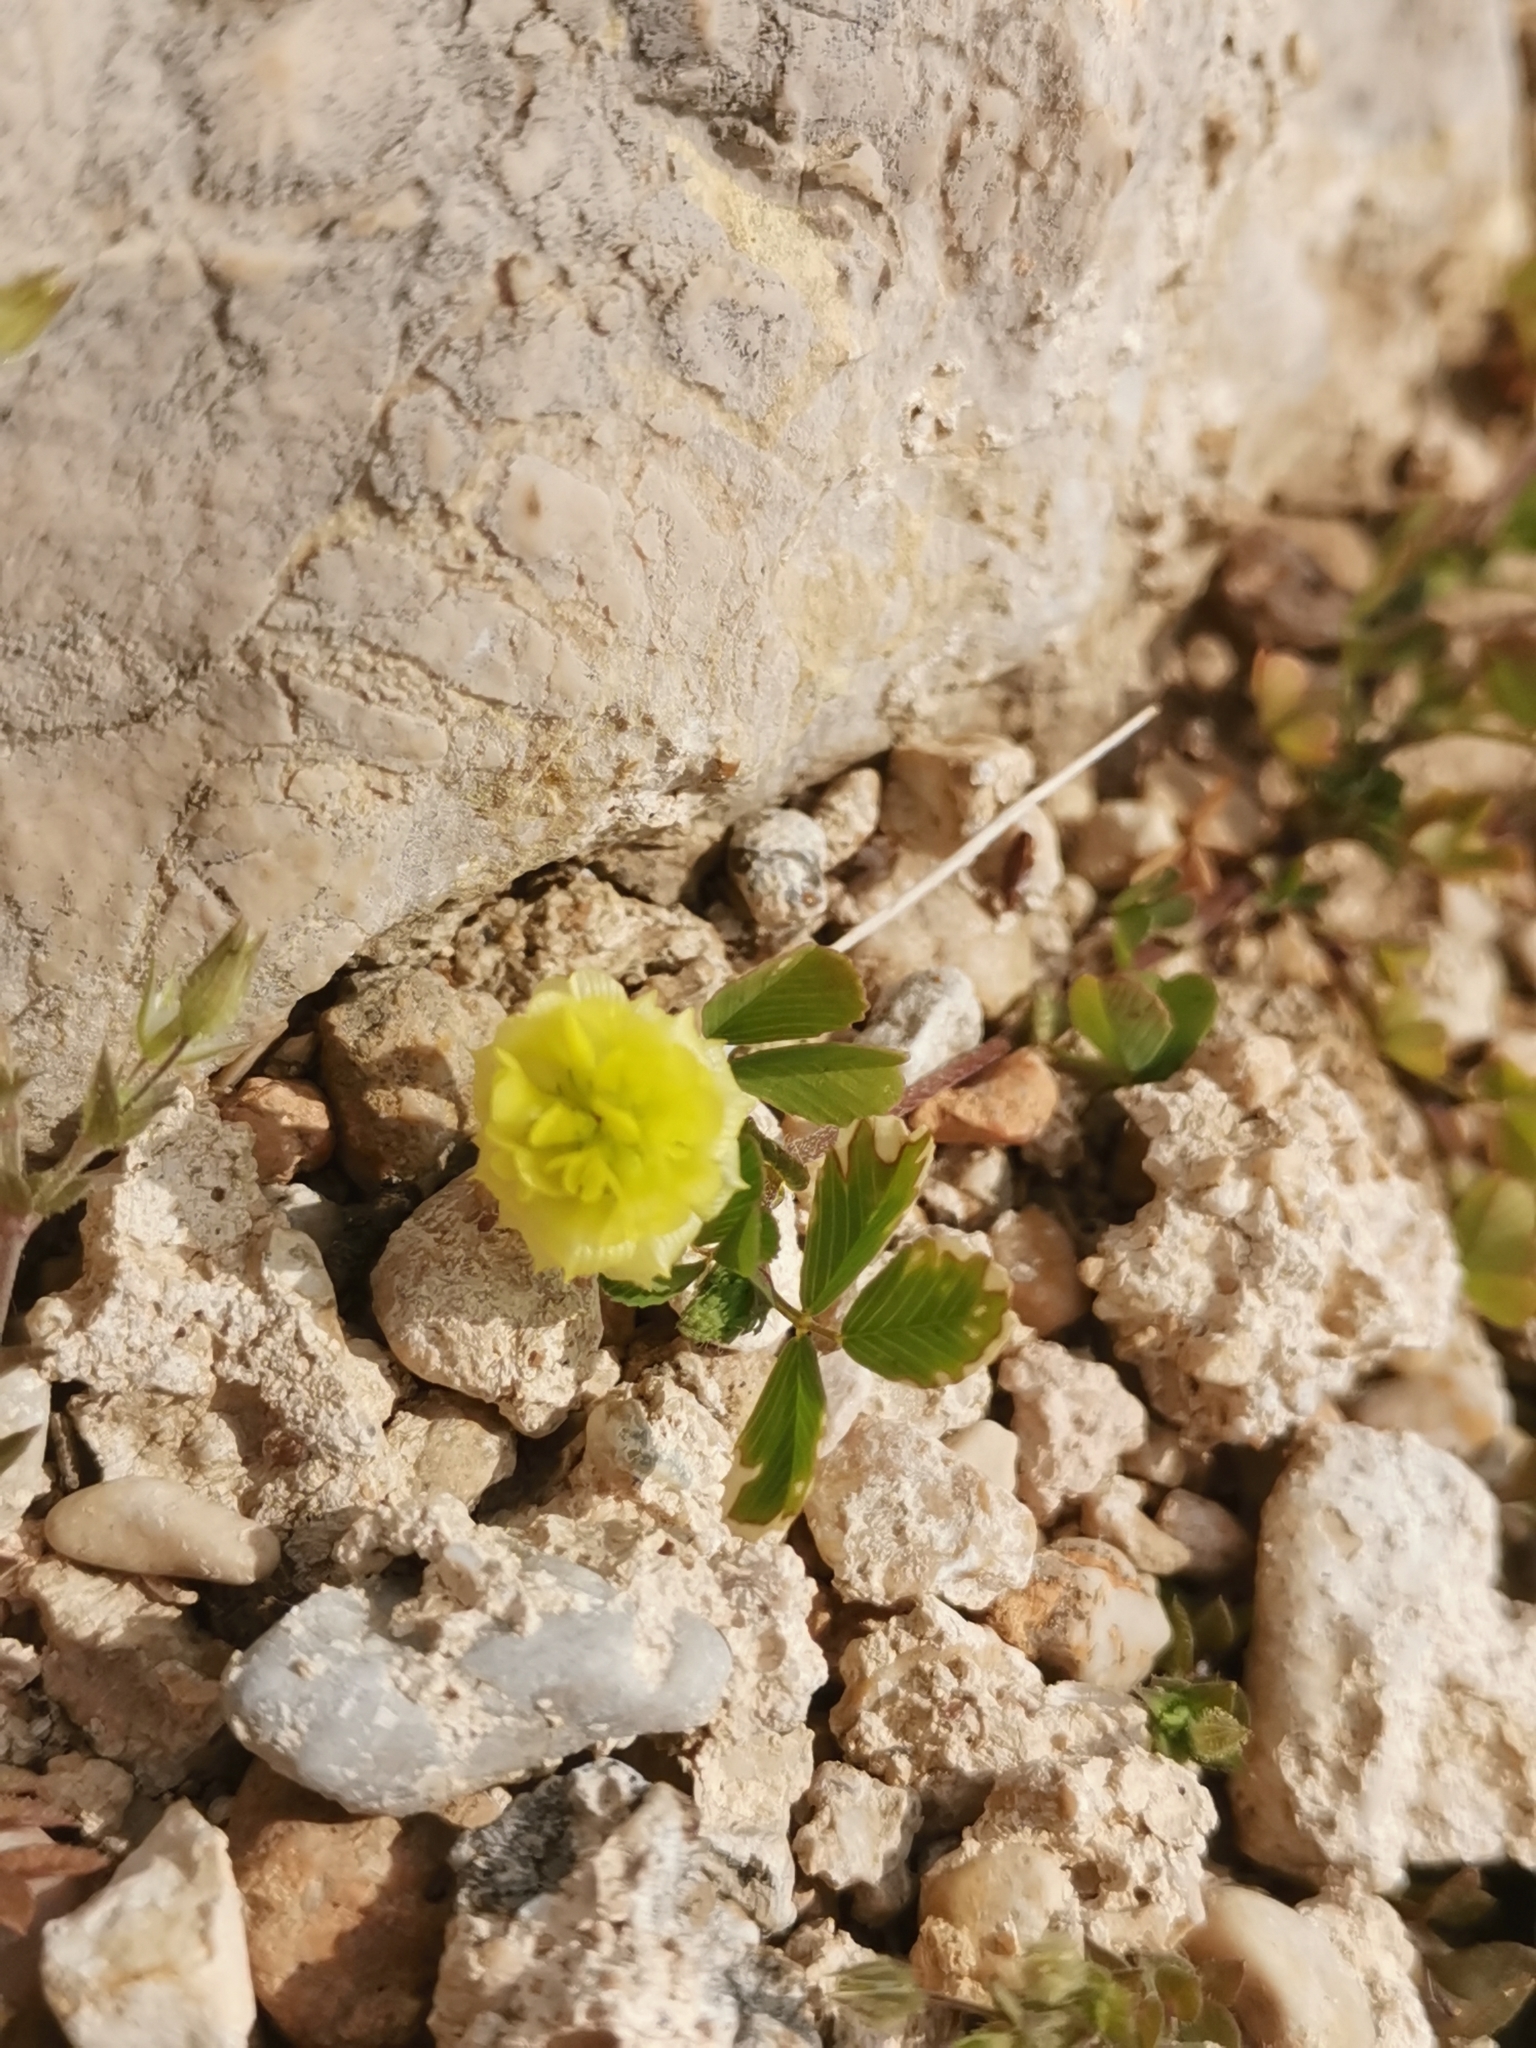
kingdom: Plantae
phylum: Tracheophyta
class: Magnoliopsida
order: Fabales
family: Fabaceae
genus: Trifolium
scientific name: Trifolium campestre
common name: Field clover
